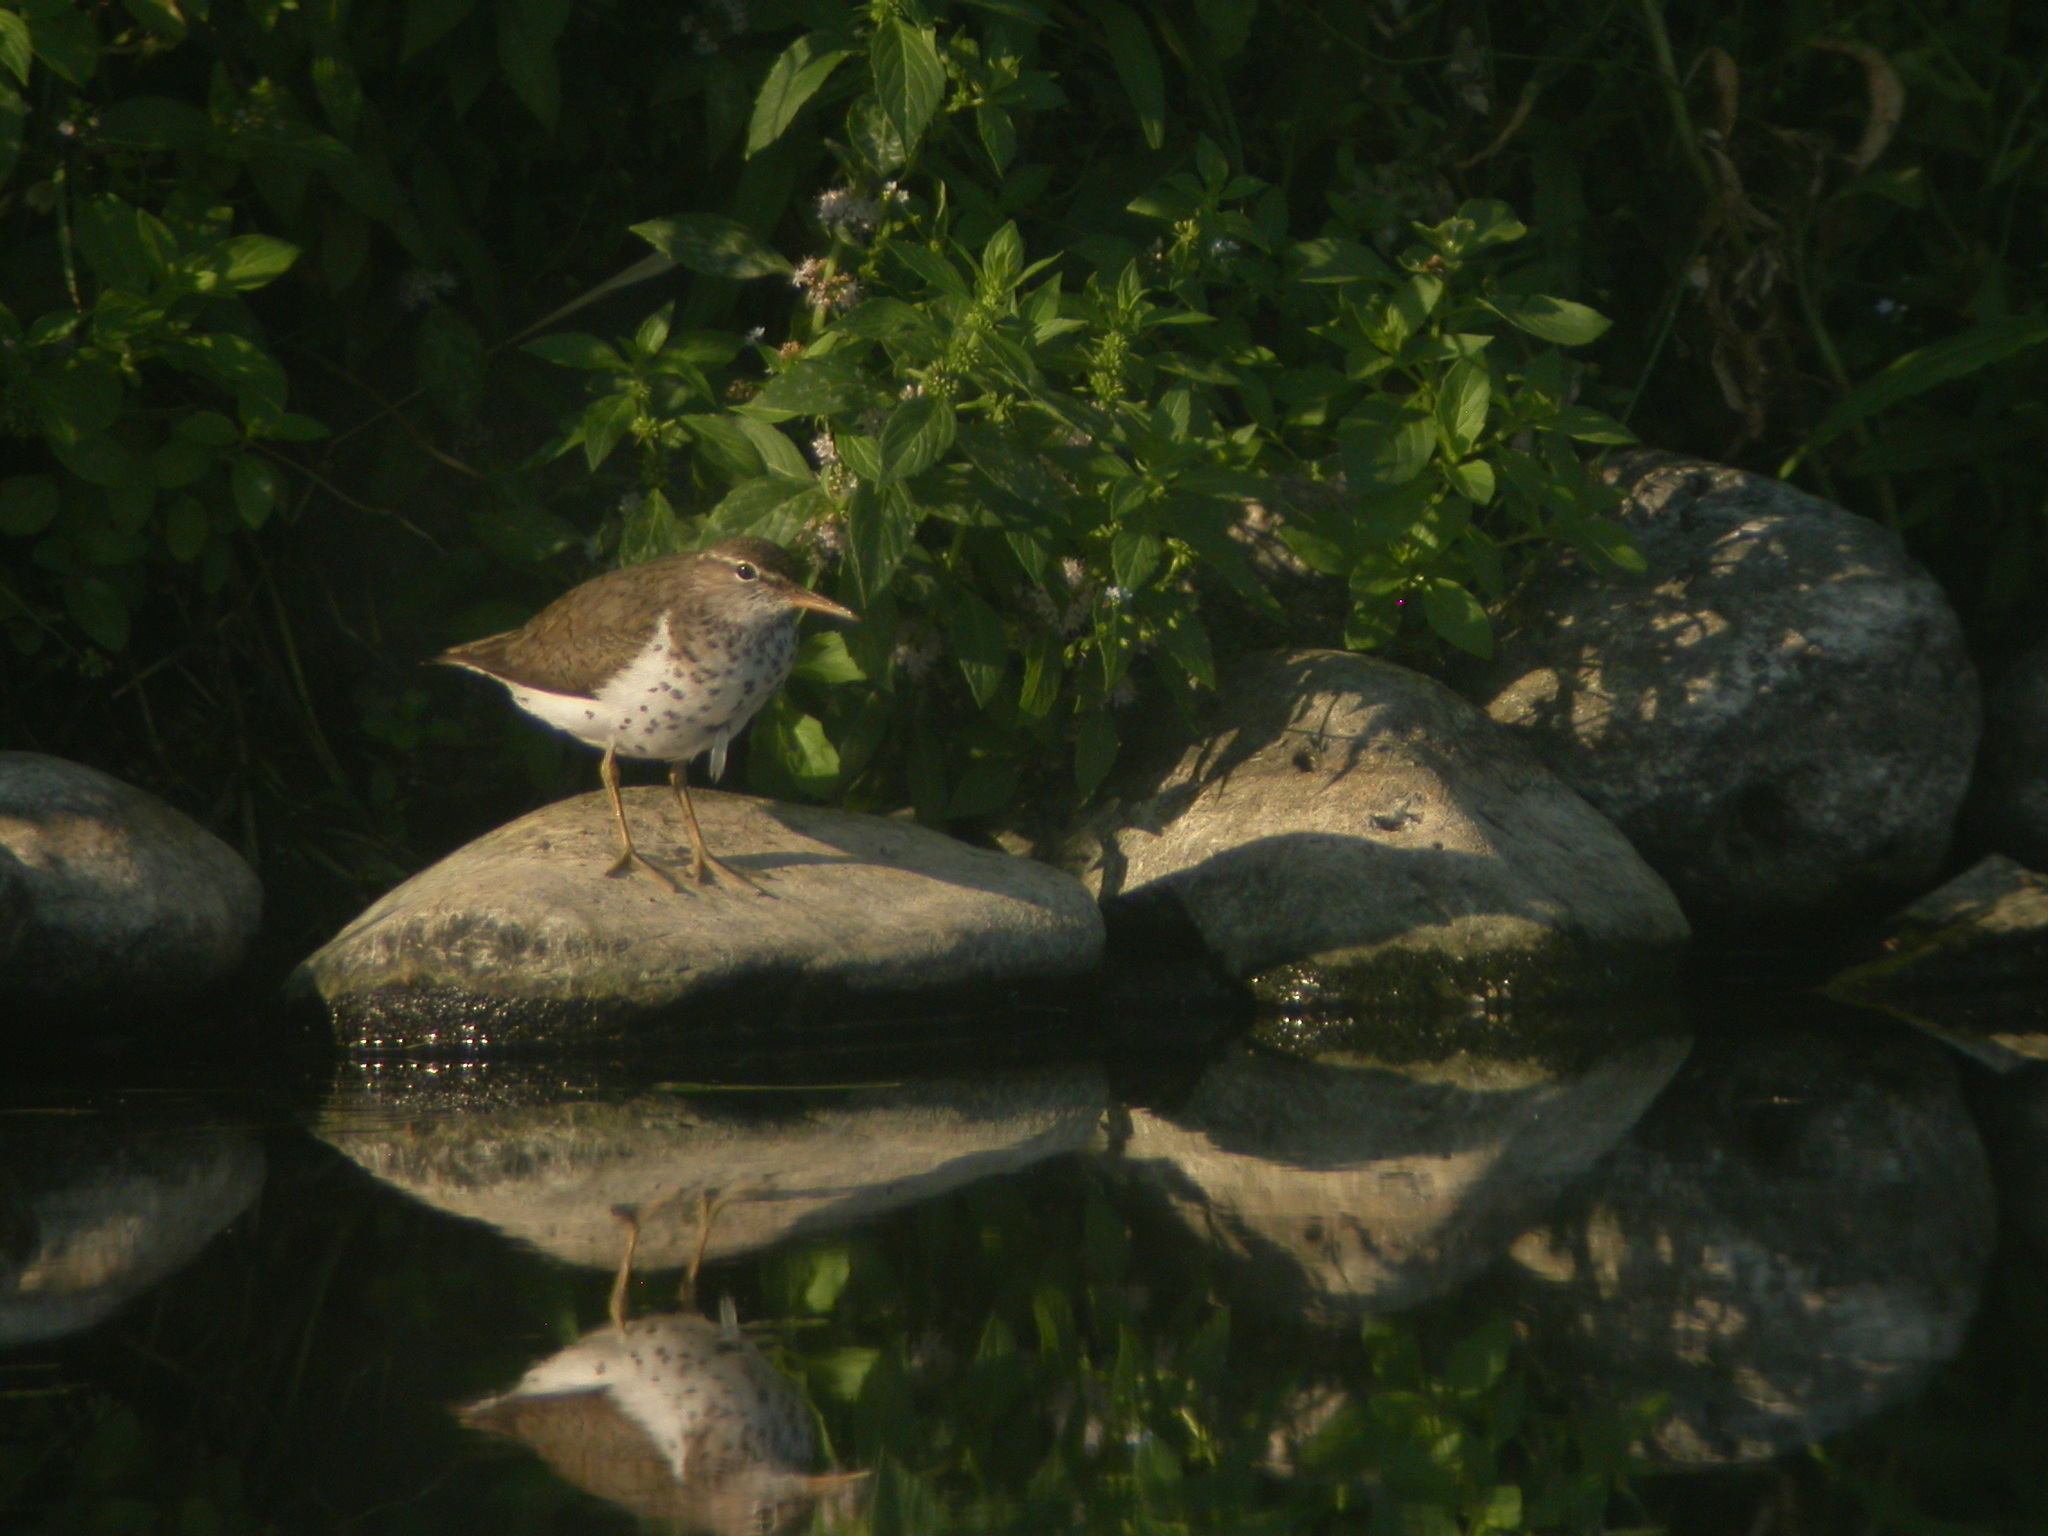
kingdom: Animalia
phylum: Chordata
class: Aves
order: Charadriiformes
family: Scolopacidae
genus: Actitis
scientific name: Actitis macularius
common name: Spotted sandpiper
